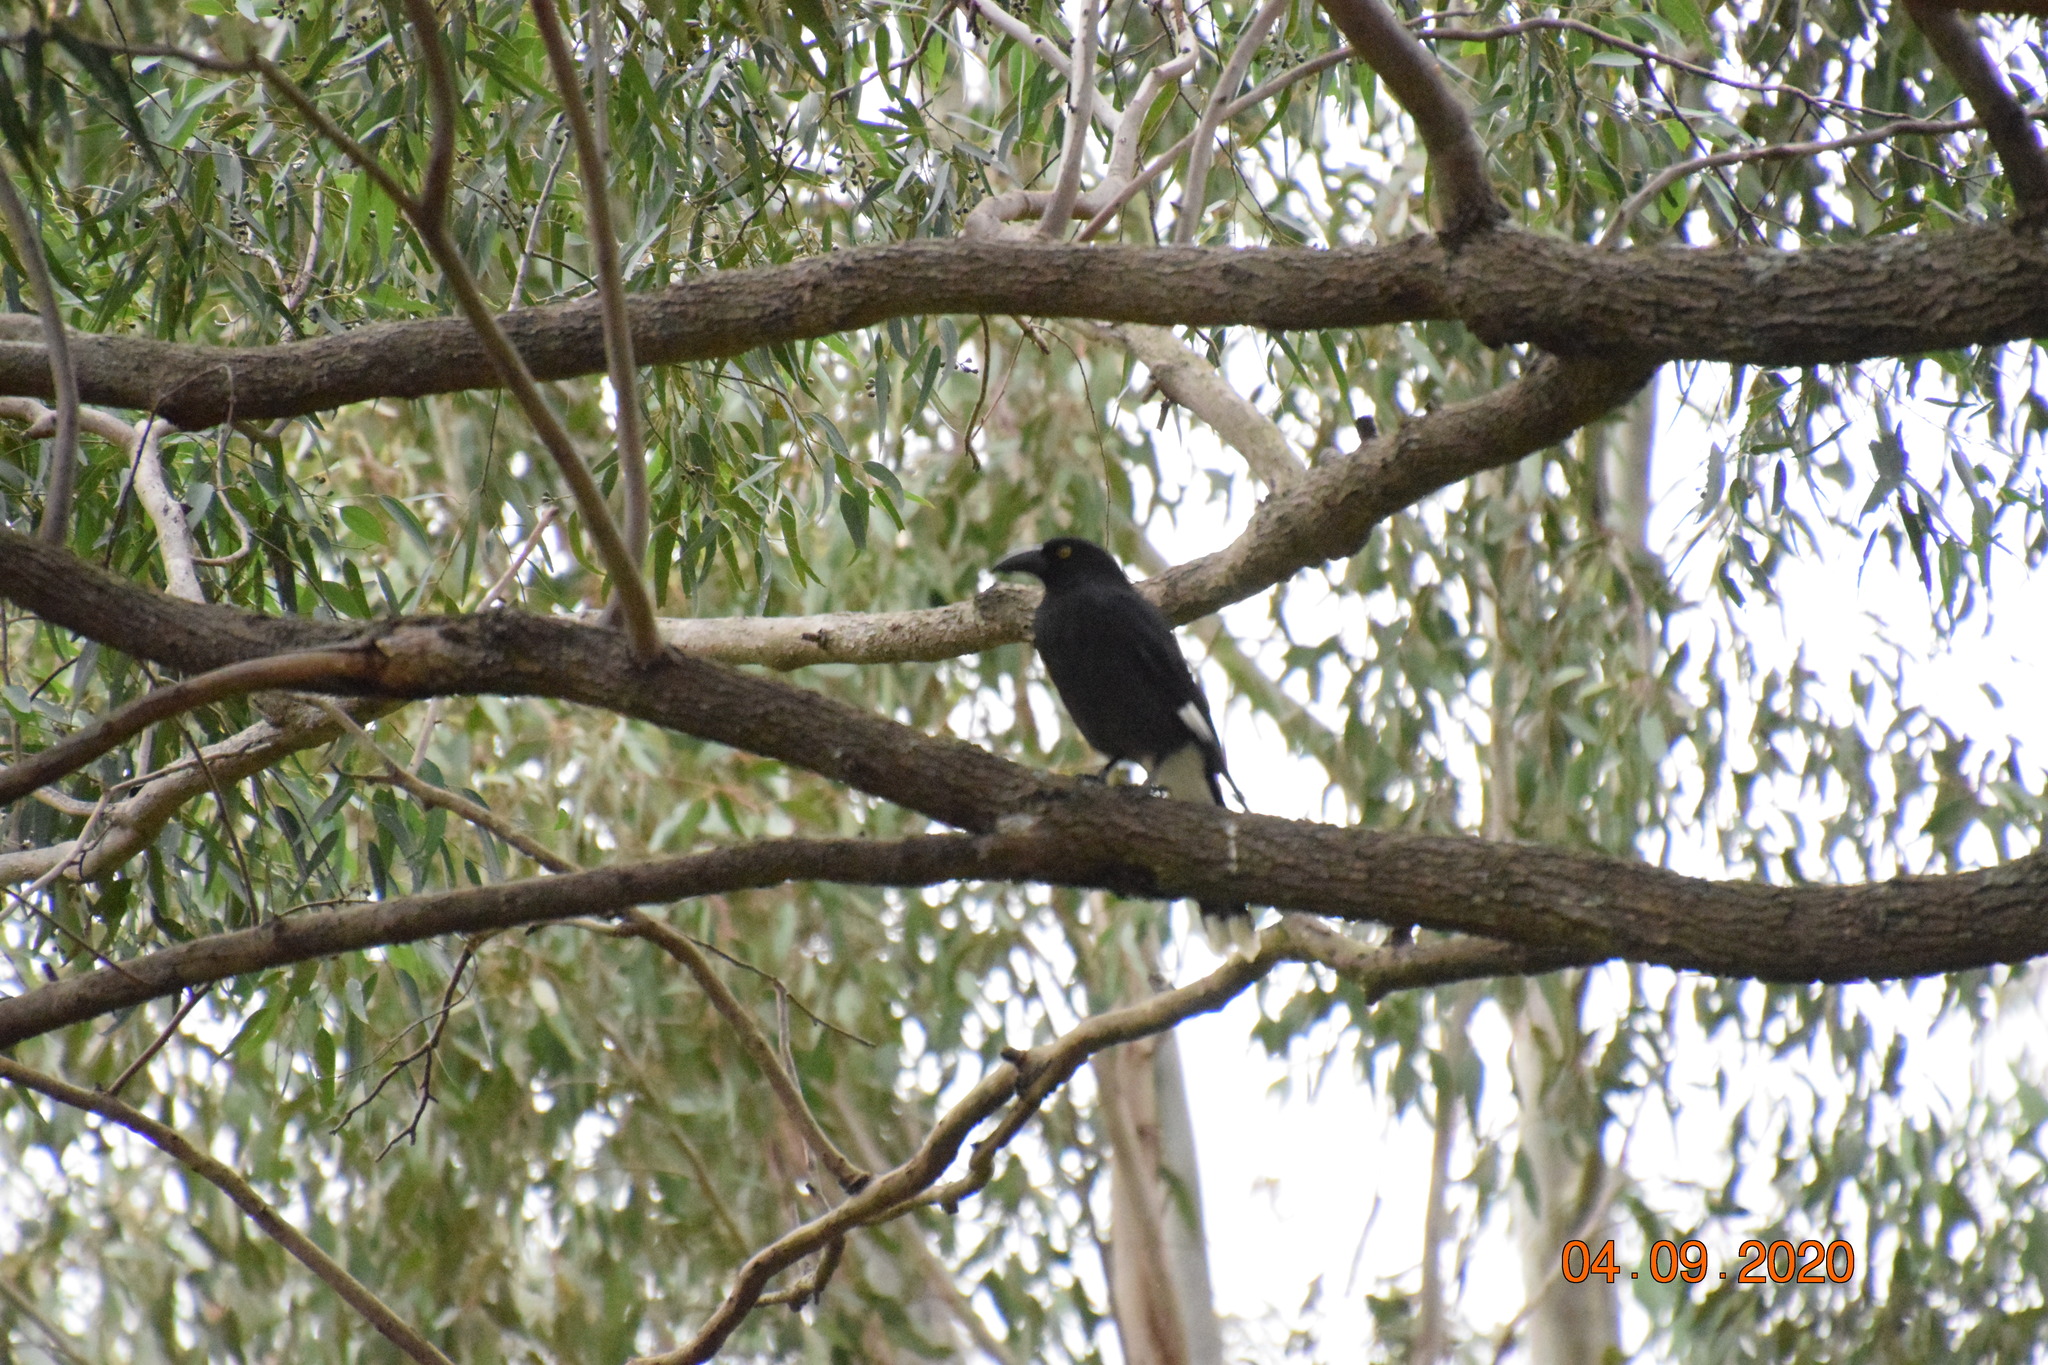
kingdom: Animalia
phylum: Chordata
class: Aves
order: Passeriformes
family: Cracticidae
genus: Strepera
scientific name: Strepera graculina
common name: Pied currawong
